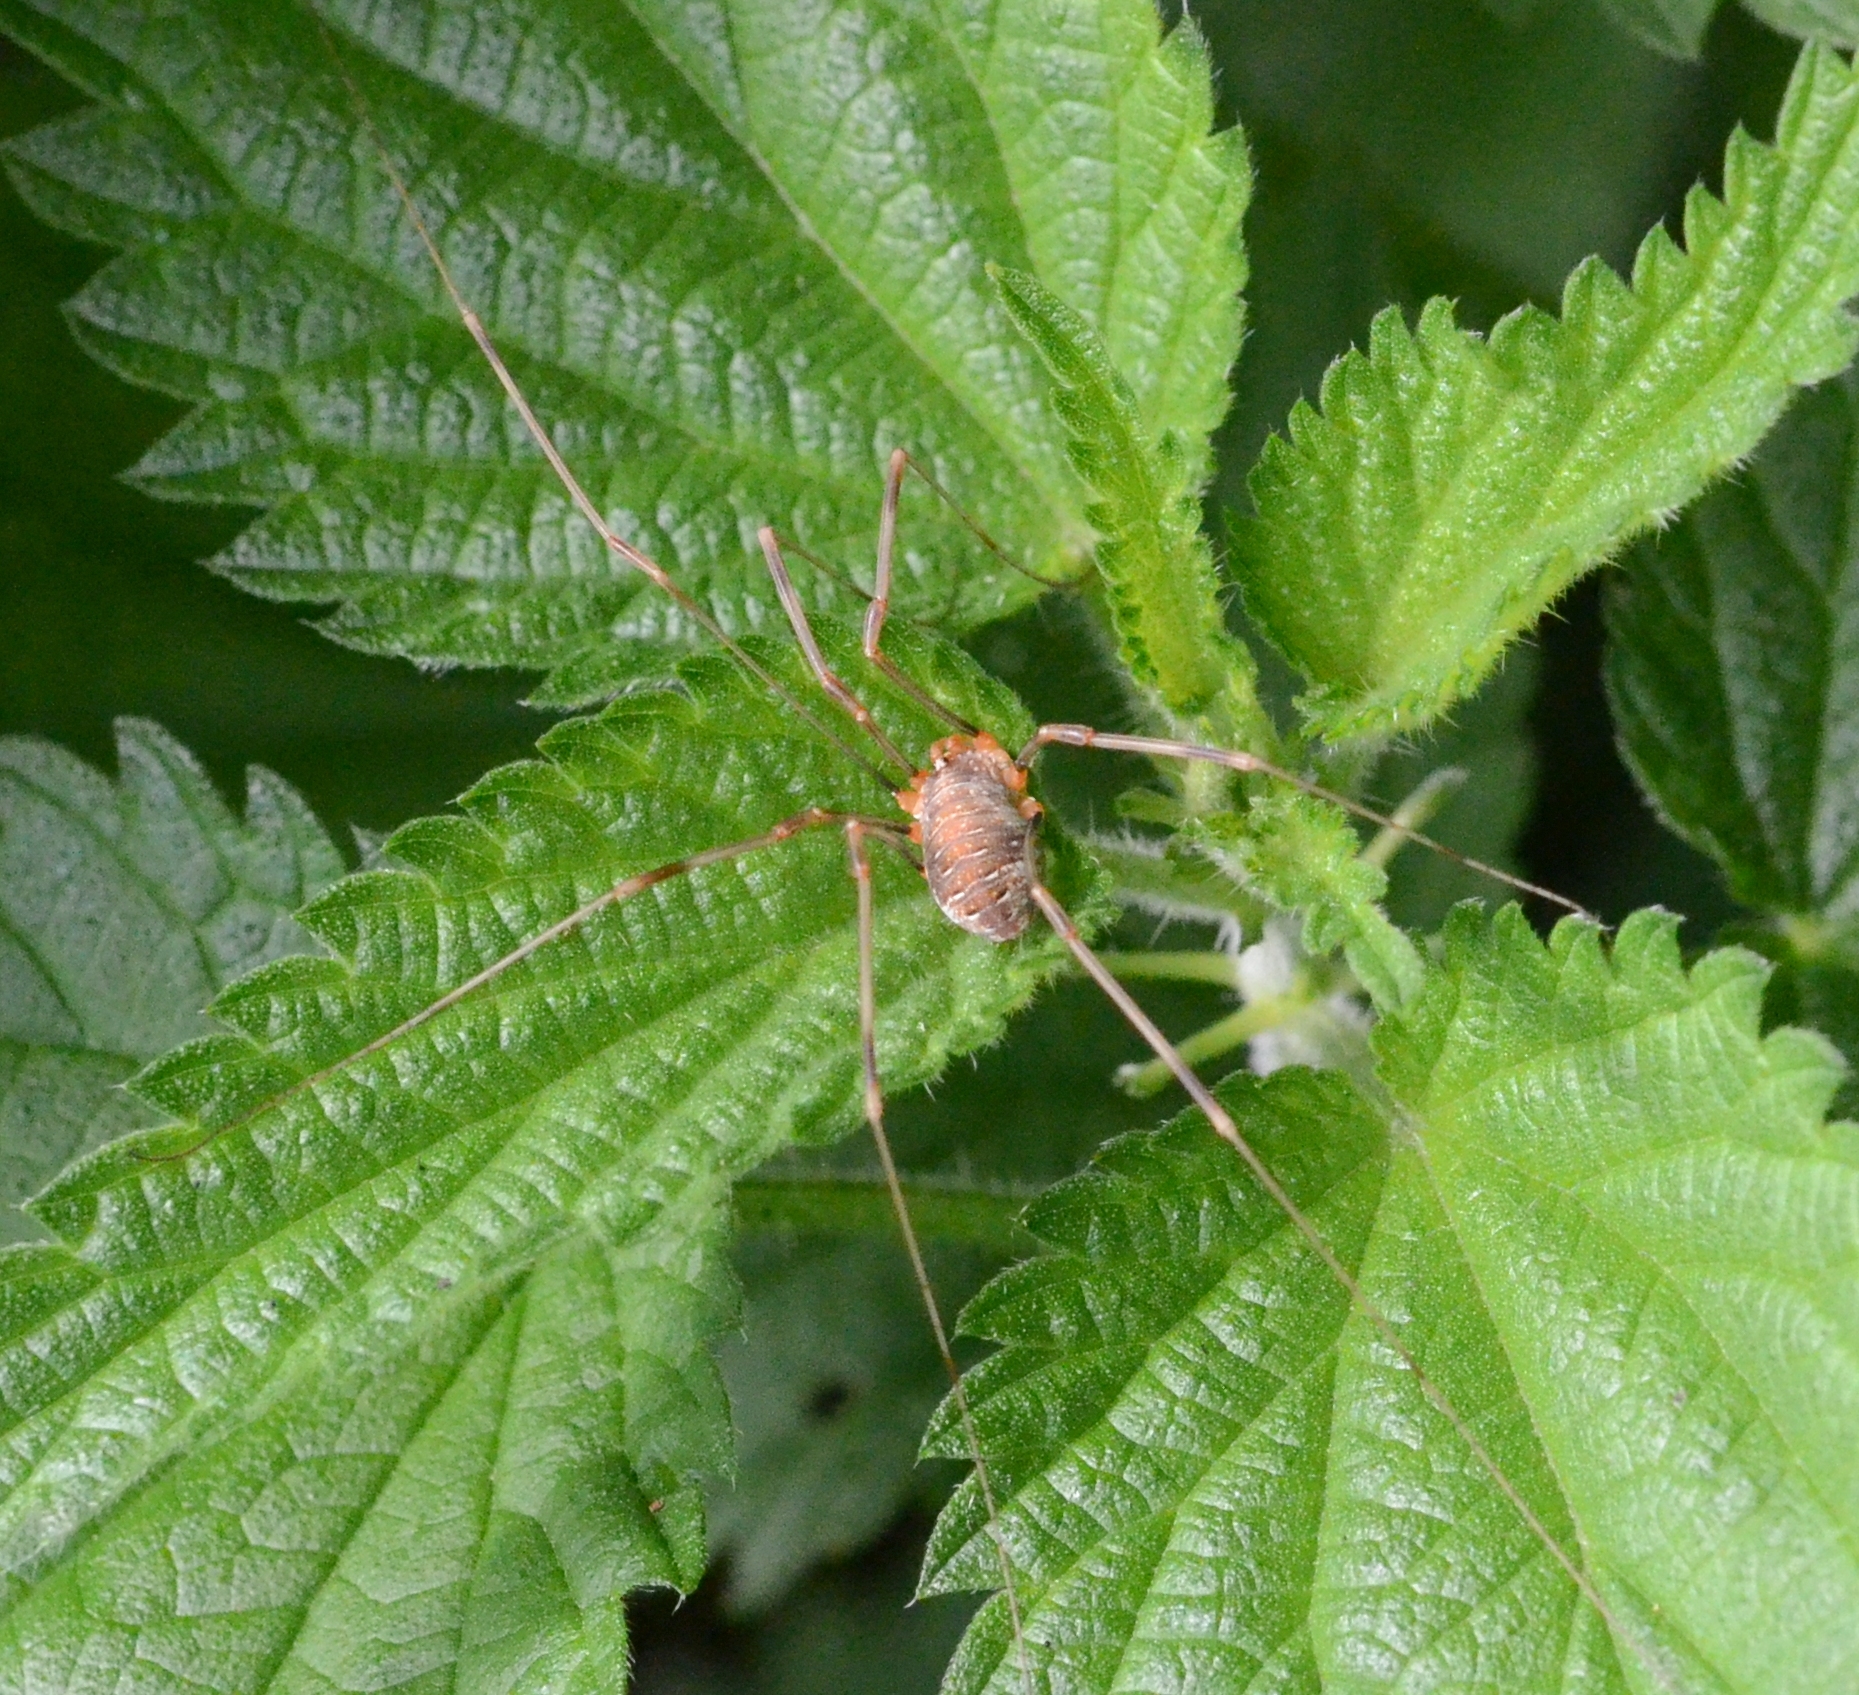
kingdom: Animalia
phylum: Arthropoda
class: Arachnida
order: Opiliones
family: Phalangiidae
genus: Opilio
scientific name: Opilio canestrinii
